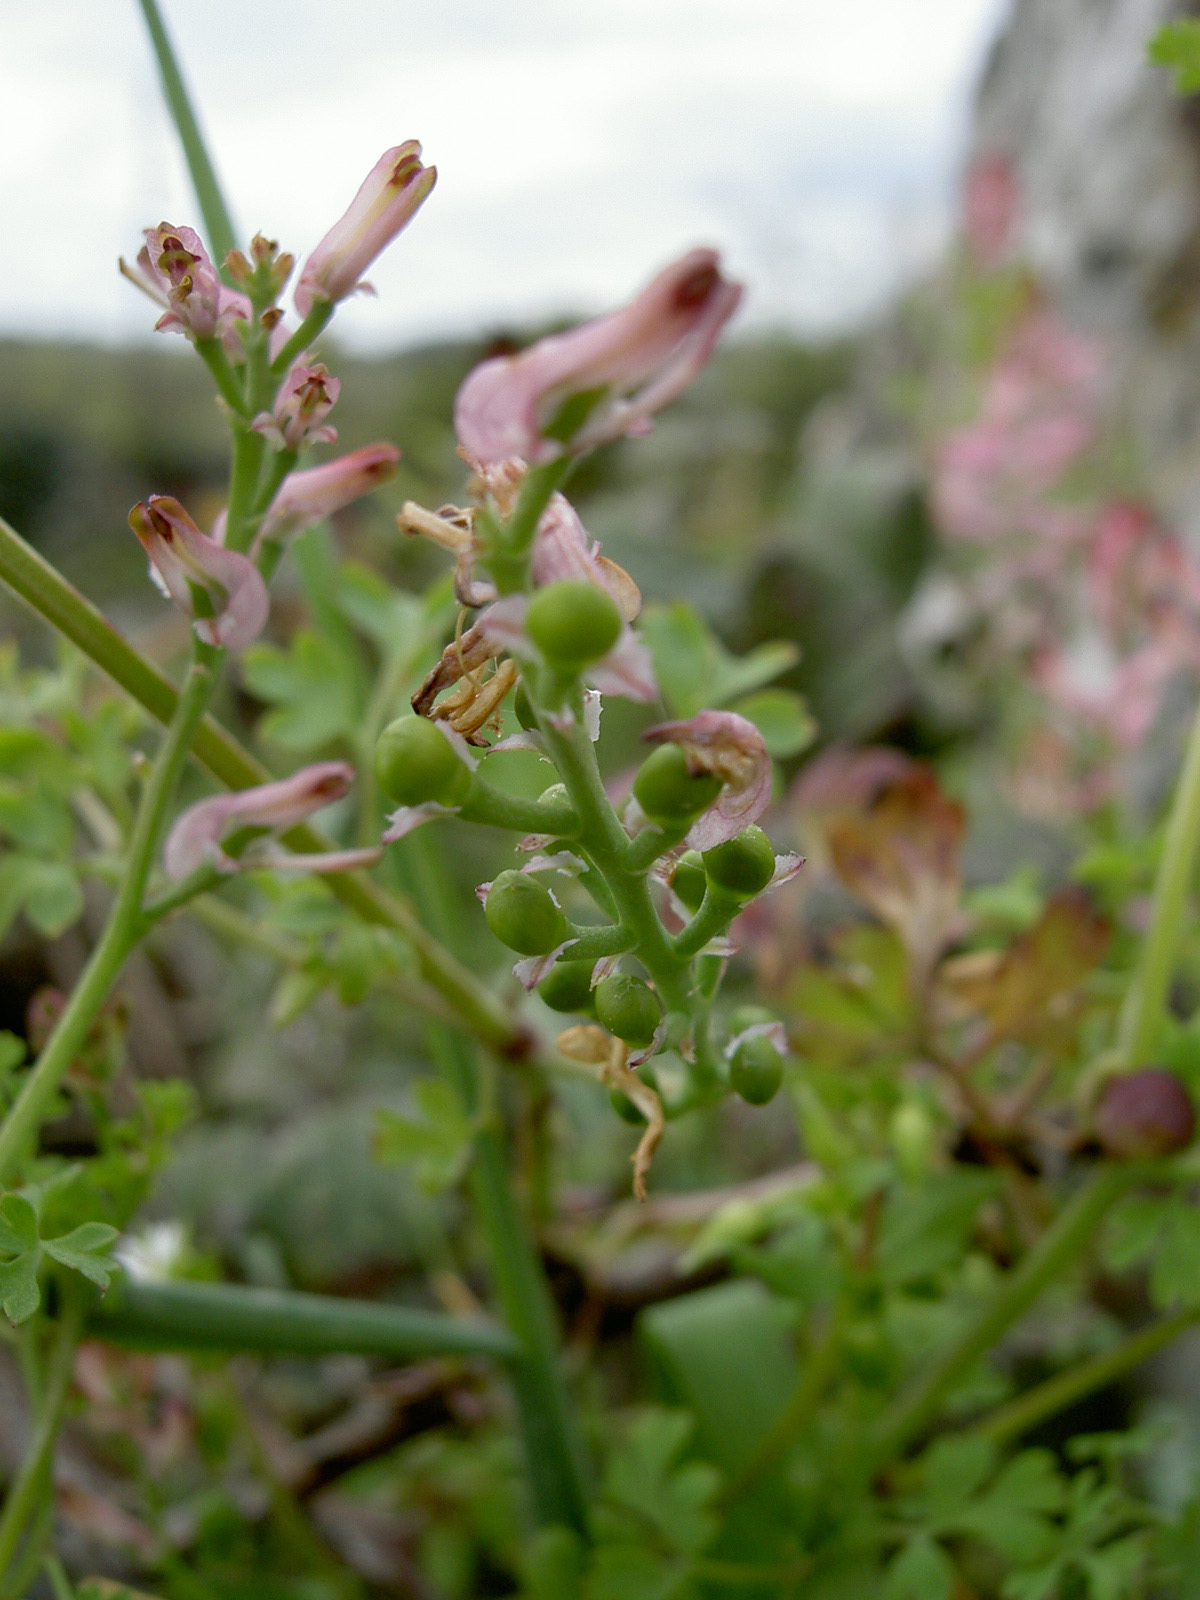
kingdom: Plantae
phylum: Tracheophyta
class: Magnoliopsida
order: Ranunculales
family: Papaveraceae
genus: Fumaria
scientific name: Fumaria bastardii
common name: Tall ramping-fumitory
